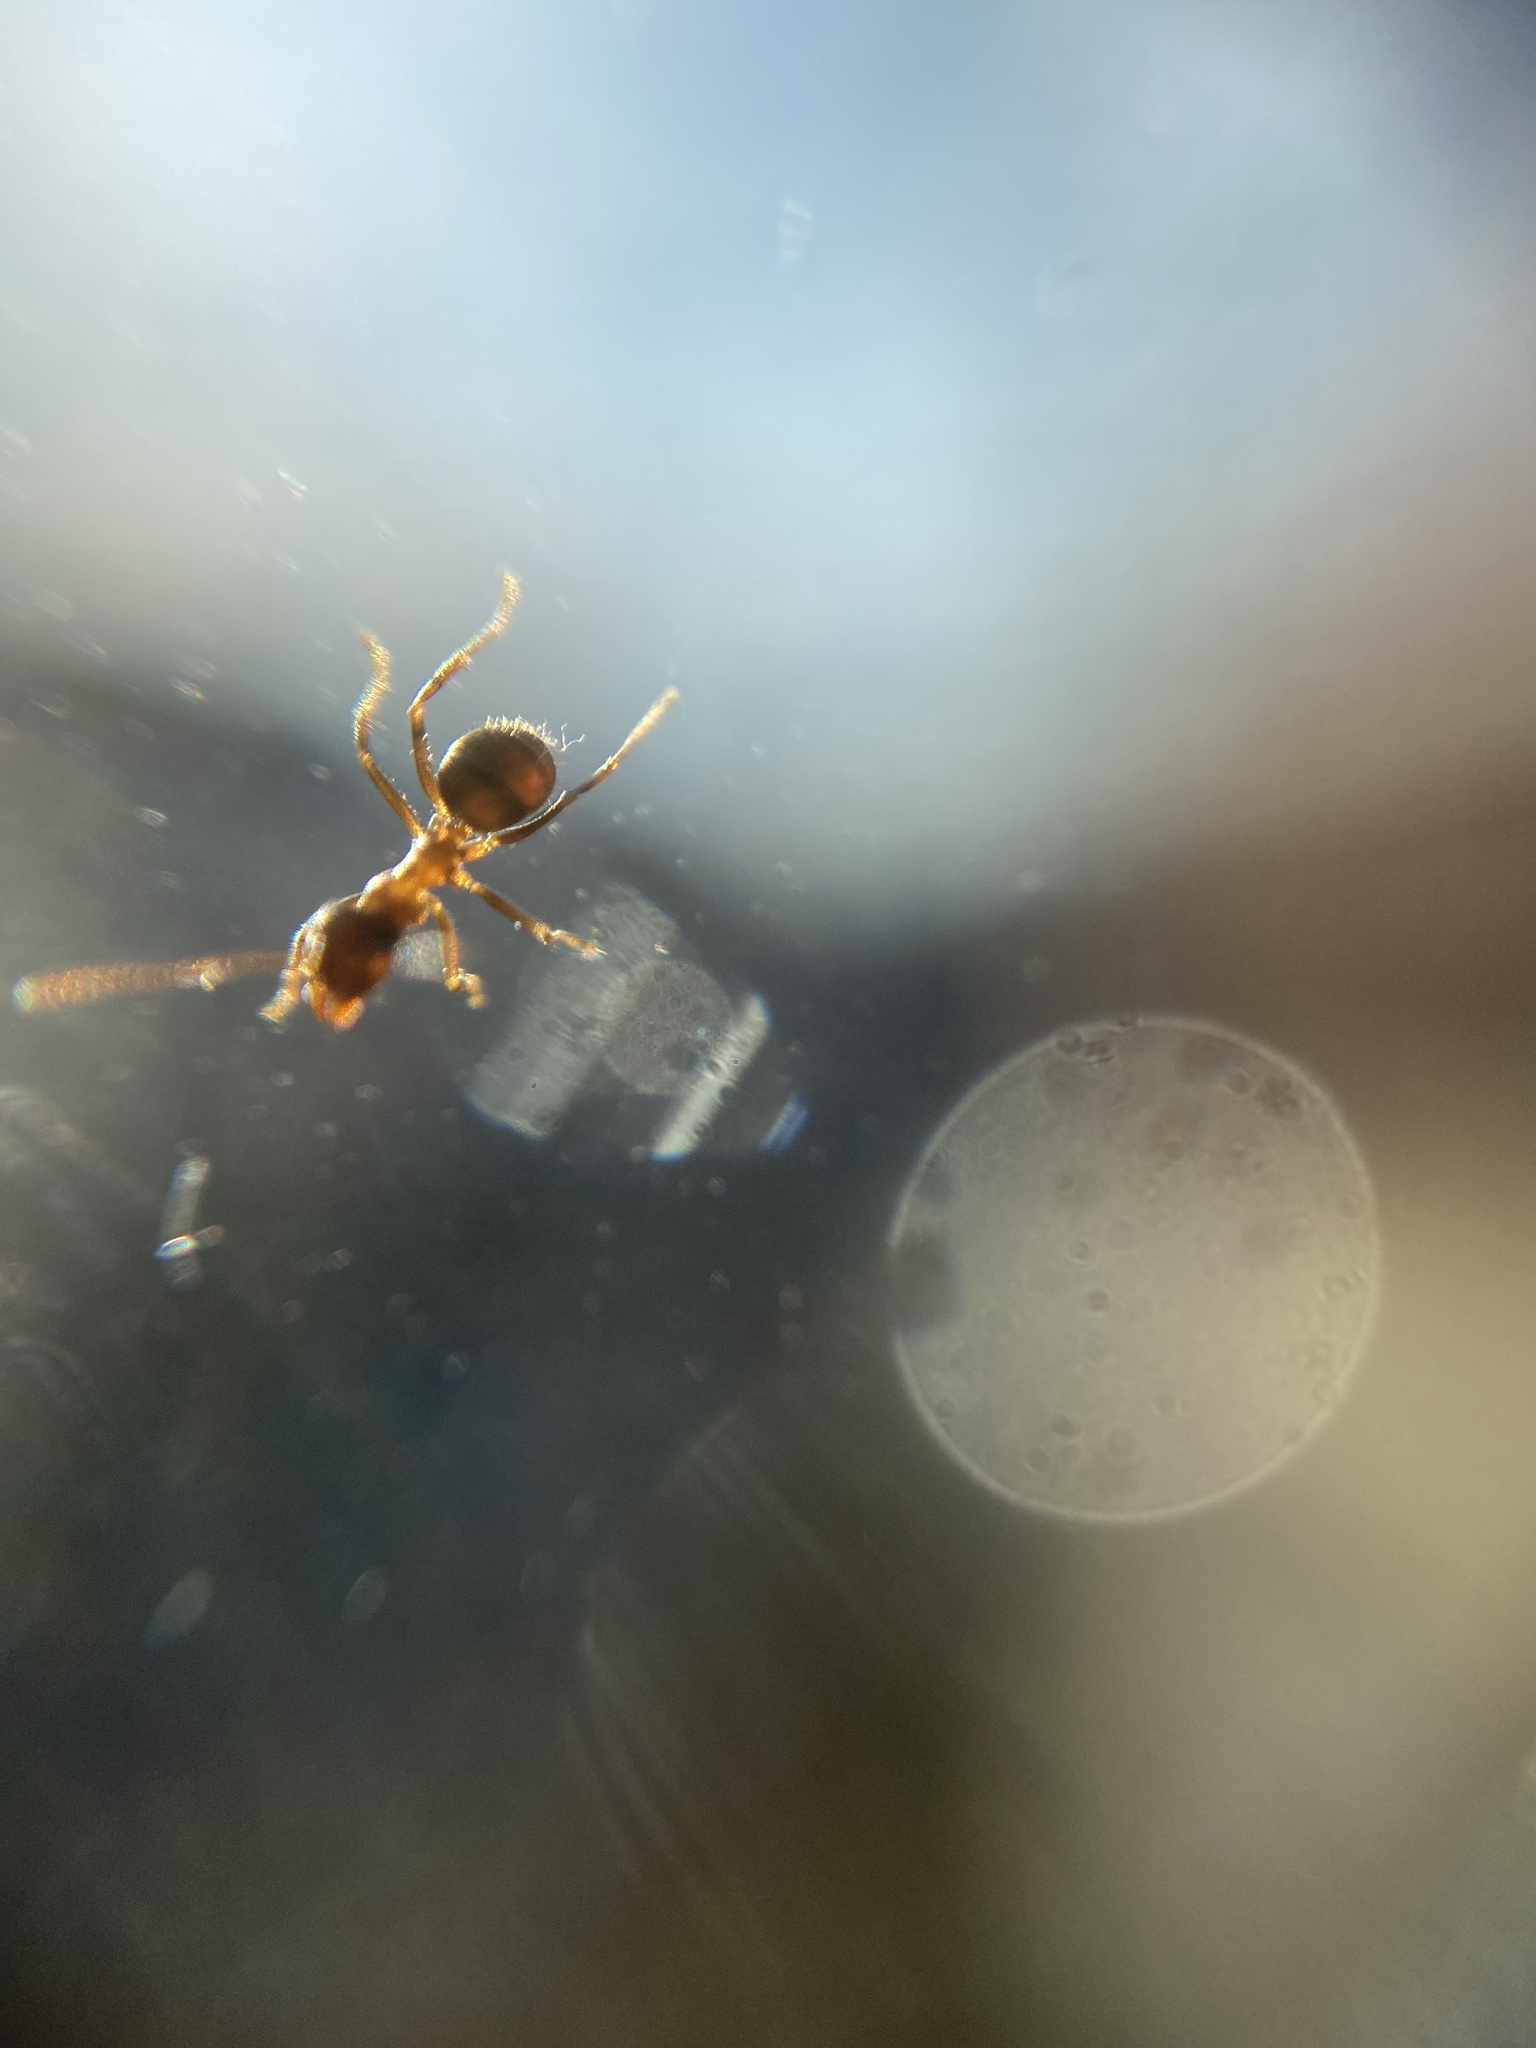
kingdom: Animalia
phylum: Arthropoda
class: Insecta
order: Hymenoptera
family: Formicidae
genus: Lasius
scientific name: Lasius emarginatus
